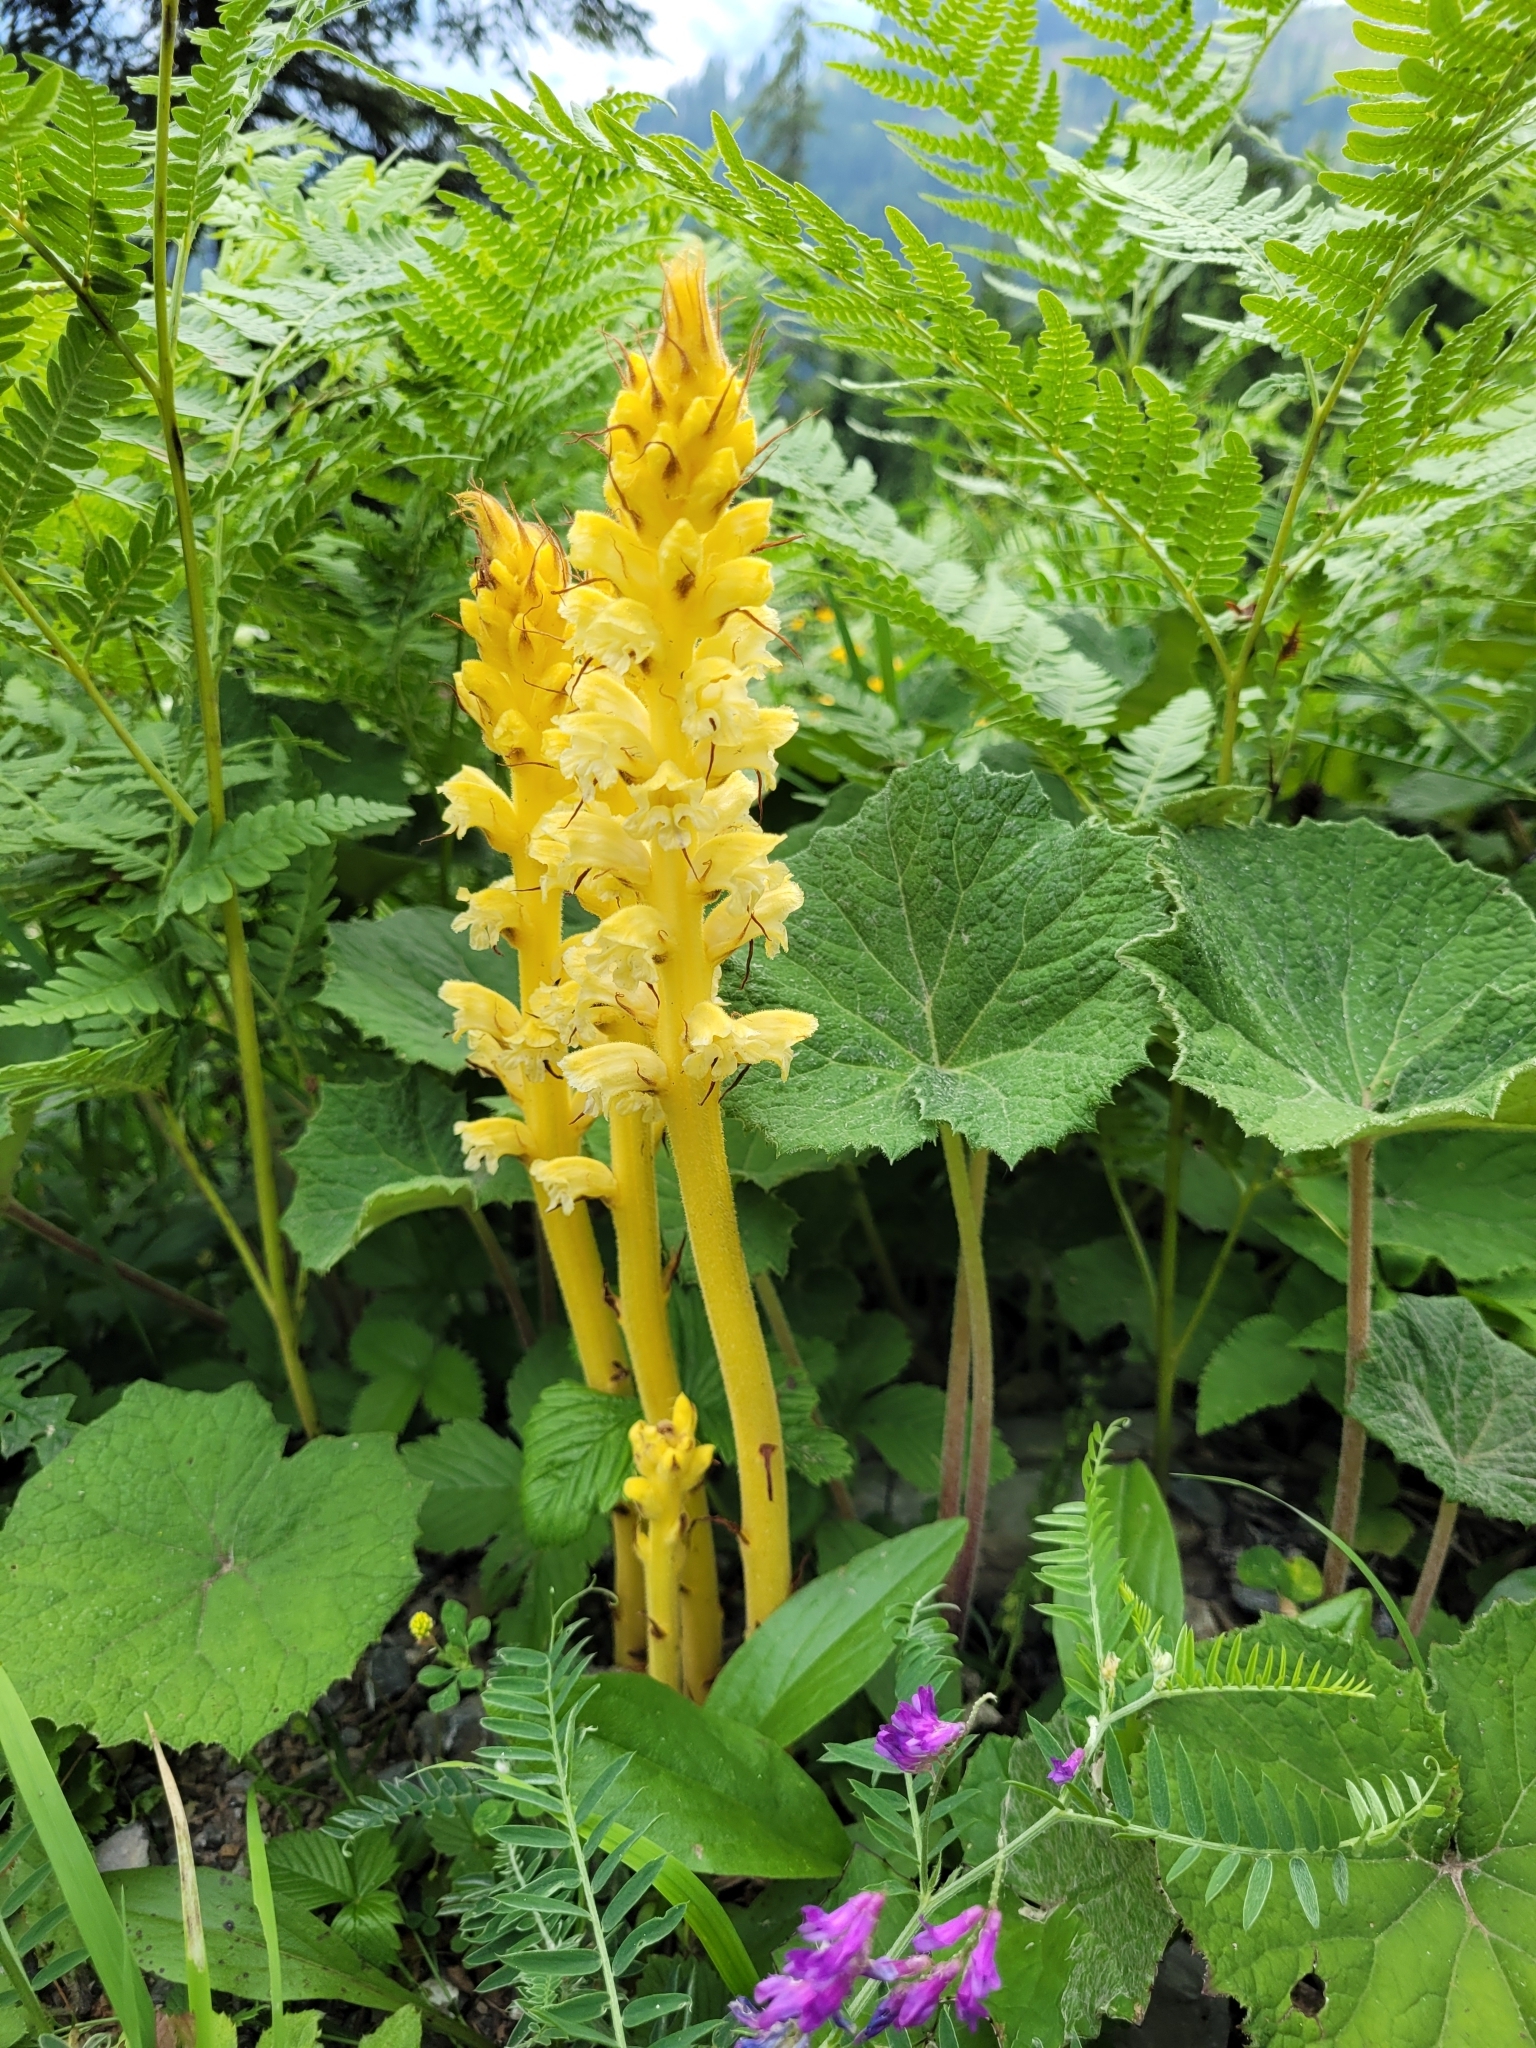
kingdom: Plantae
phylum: Tracheophyta
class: Magnoliopsida
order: Lamiales
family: Orobanchaceae
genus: Orobanche
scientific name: Orobanche flava
